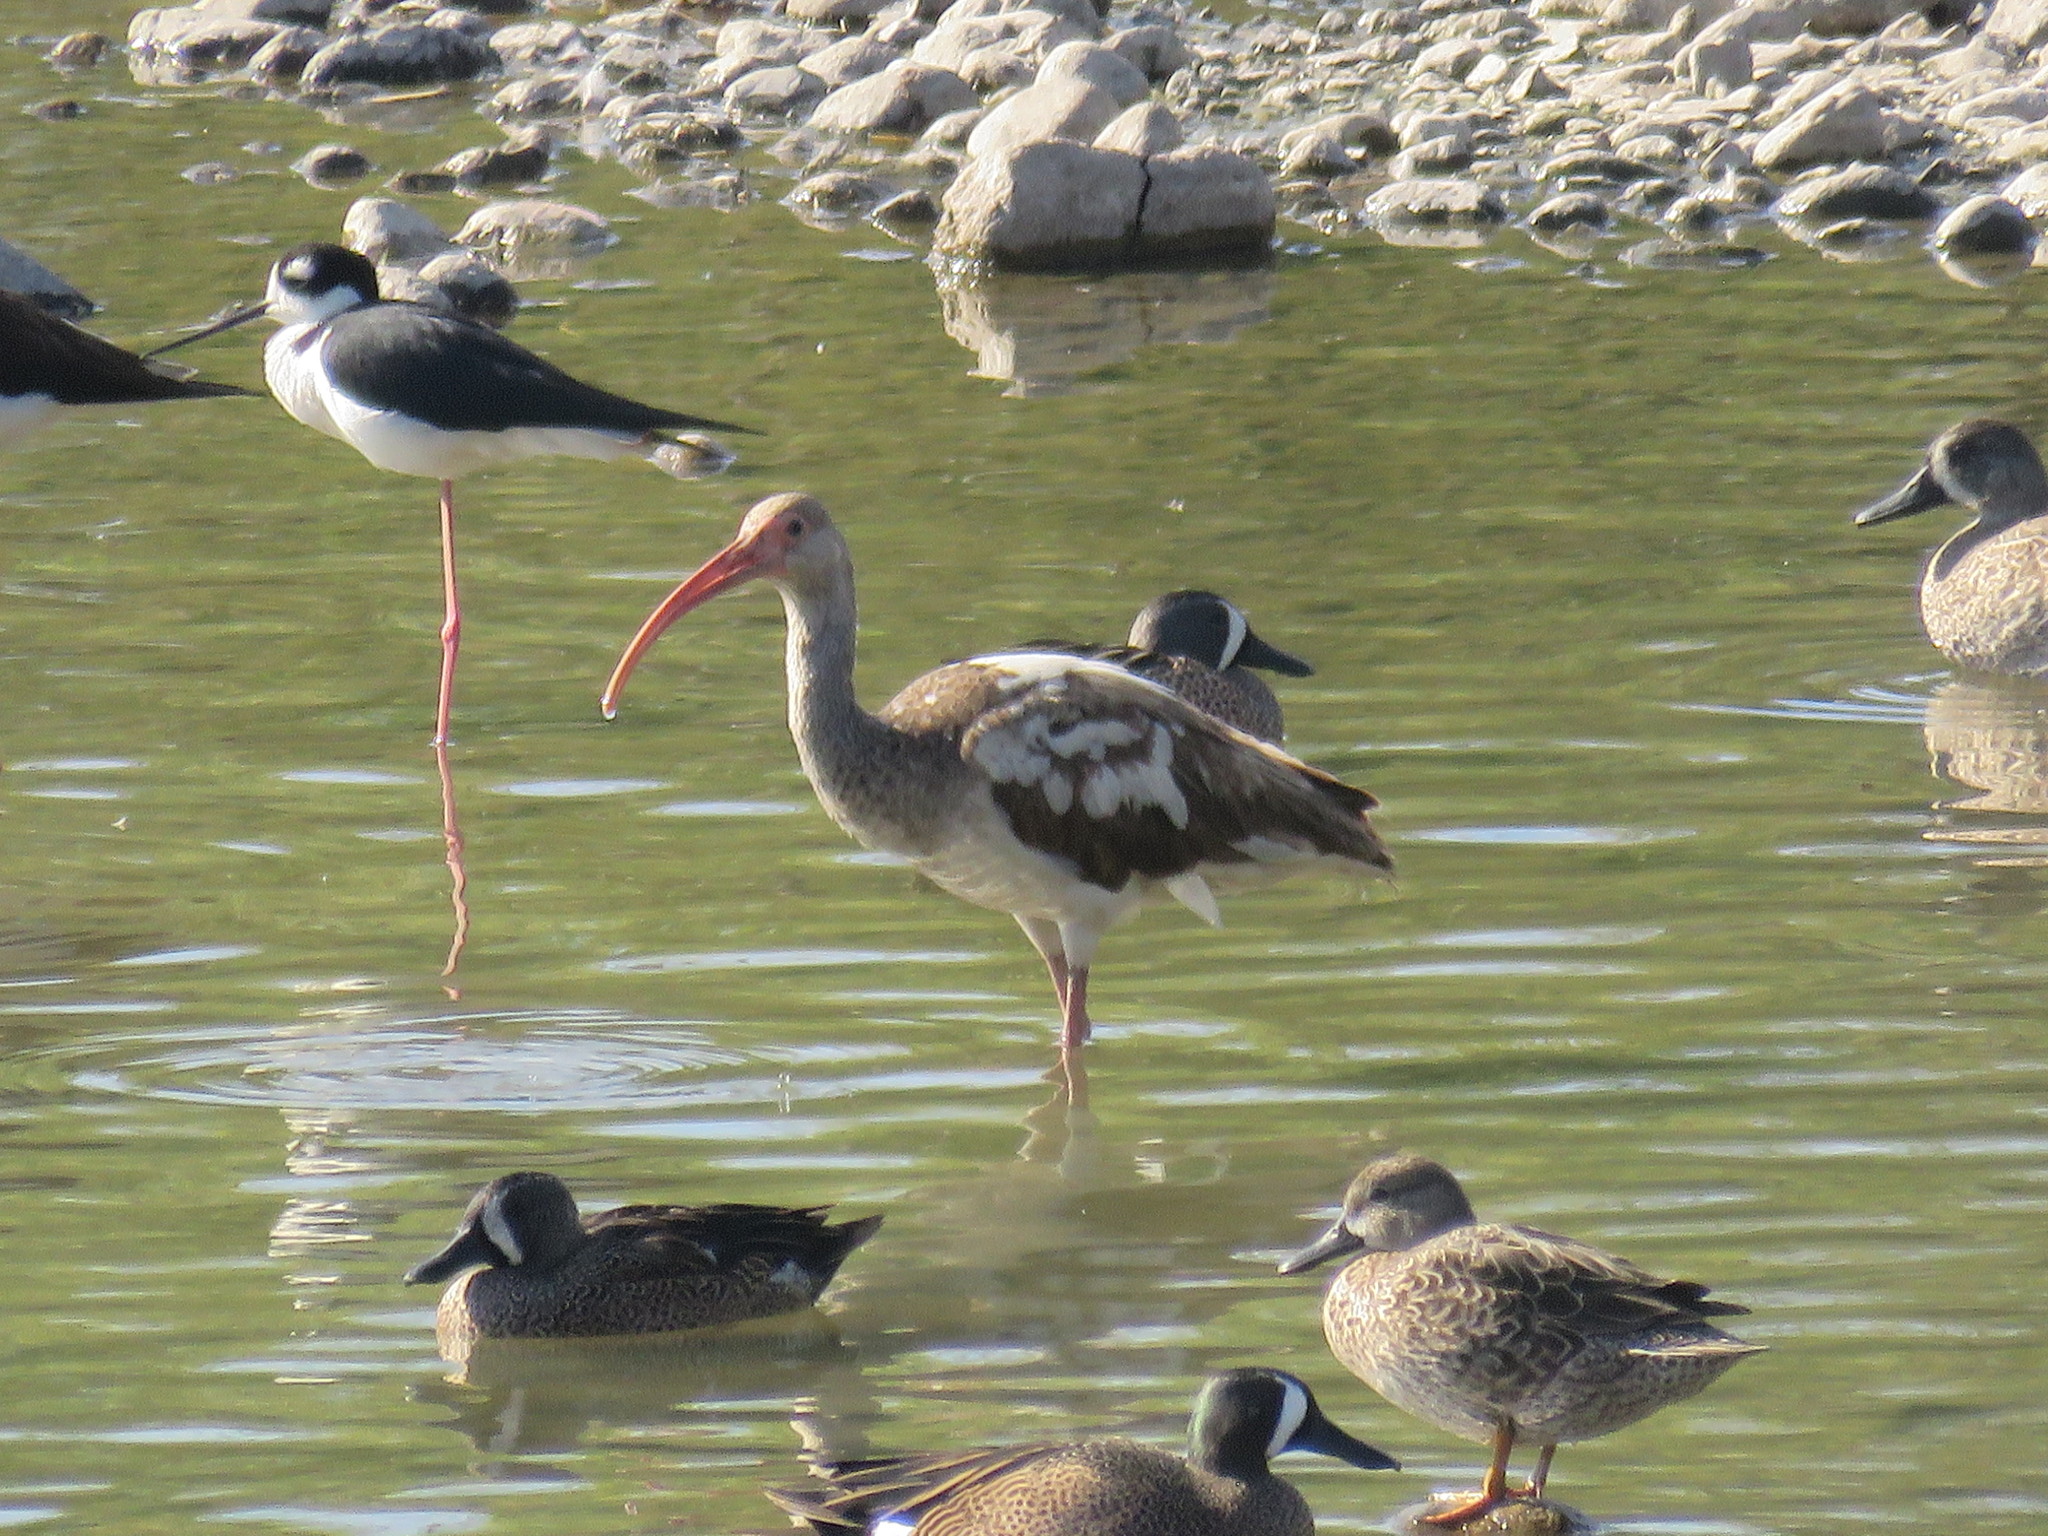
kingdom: Animalia
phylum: Chordata
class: Aves
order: Pelecaniformes
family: Threskiornithidae
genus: Eudocimus
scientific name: Eudocimus albus
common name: White ibis
